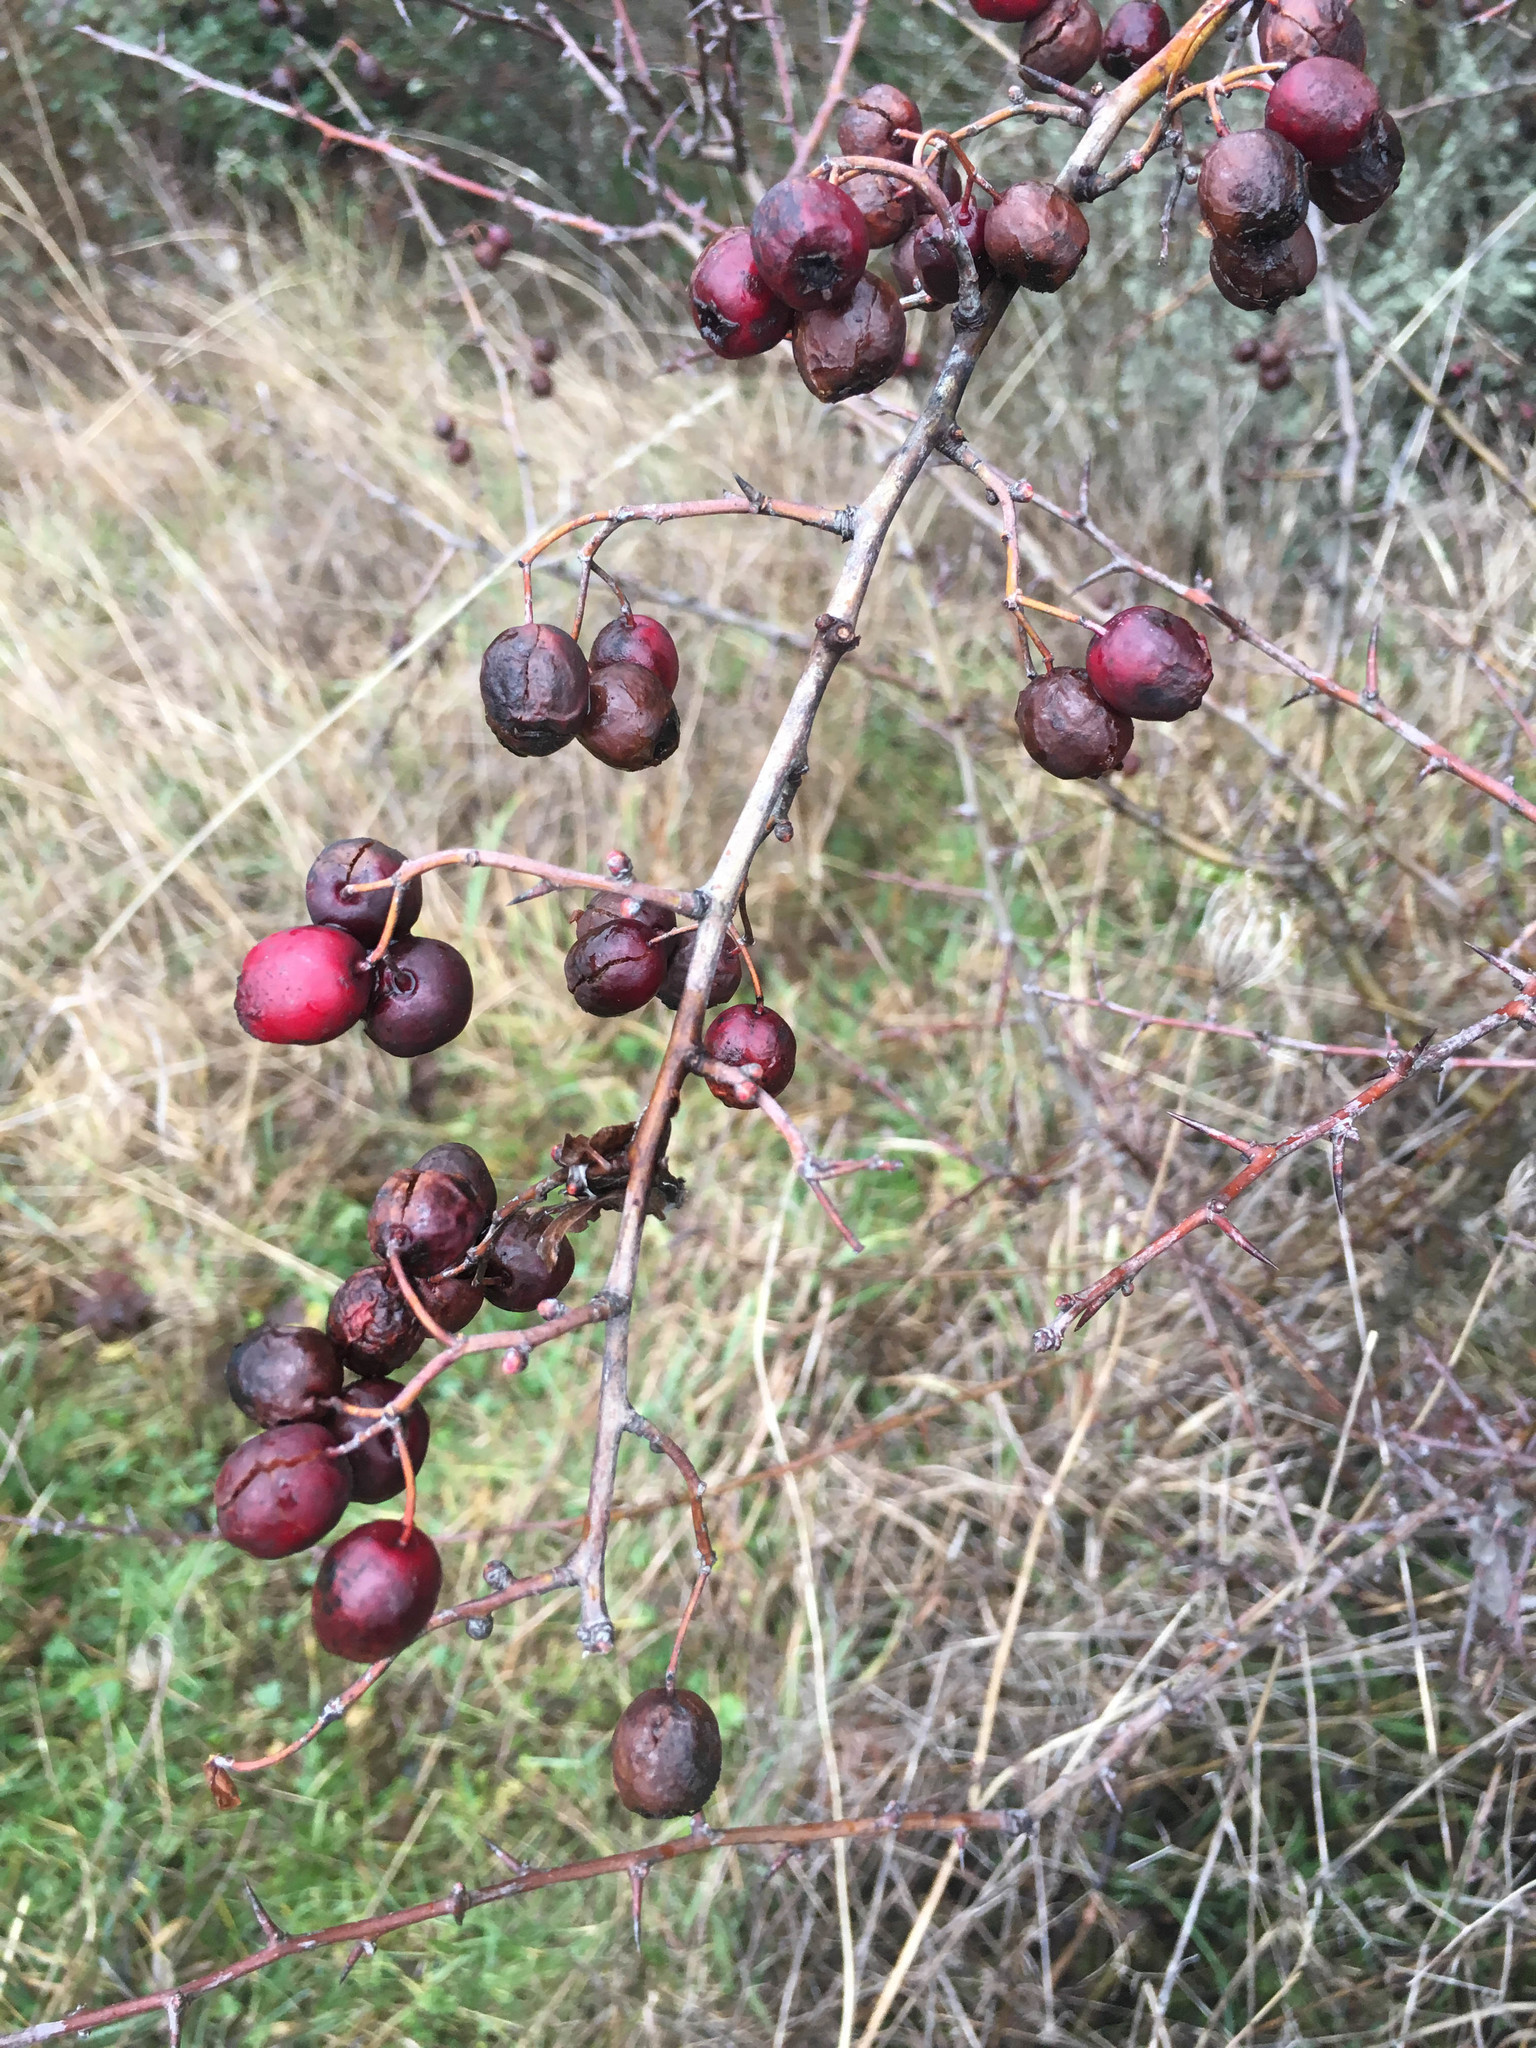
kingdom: Plantae
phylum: Tracheophyta
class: Magnoliopsida
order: Rosales
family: Rosaceae
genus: Crataegus
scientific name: Crataegus monogyna
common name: Hawthorn
